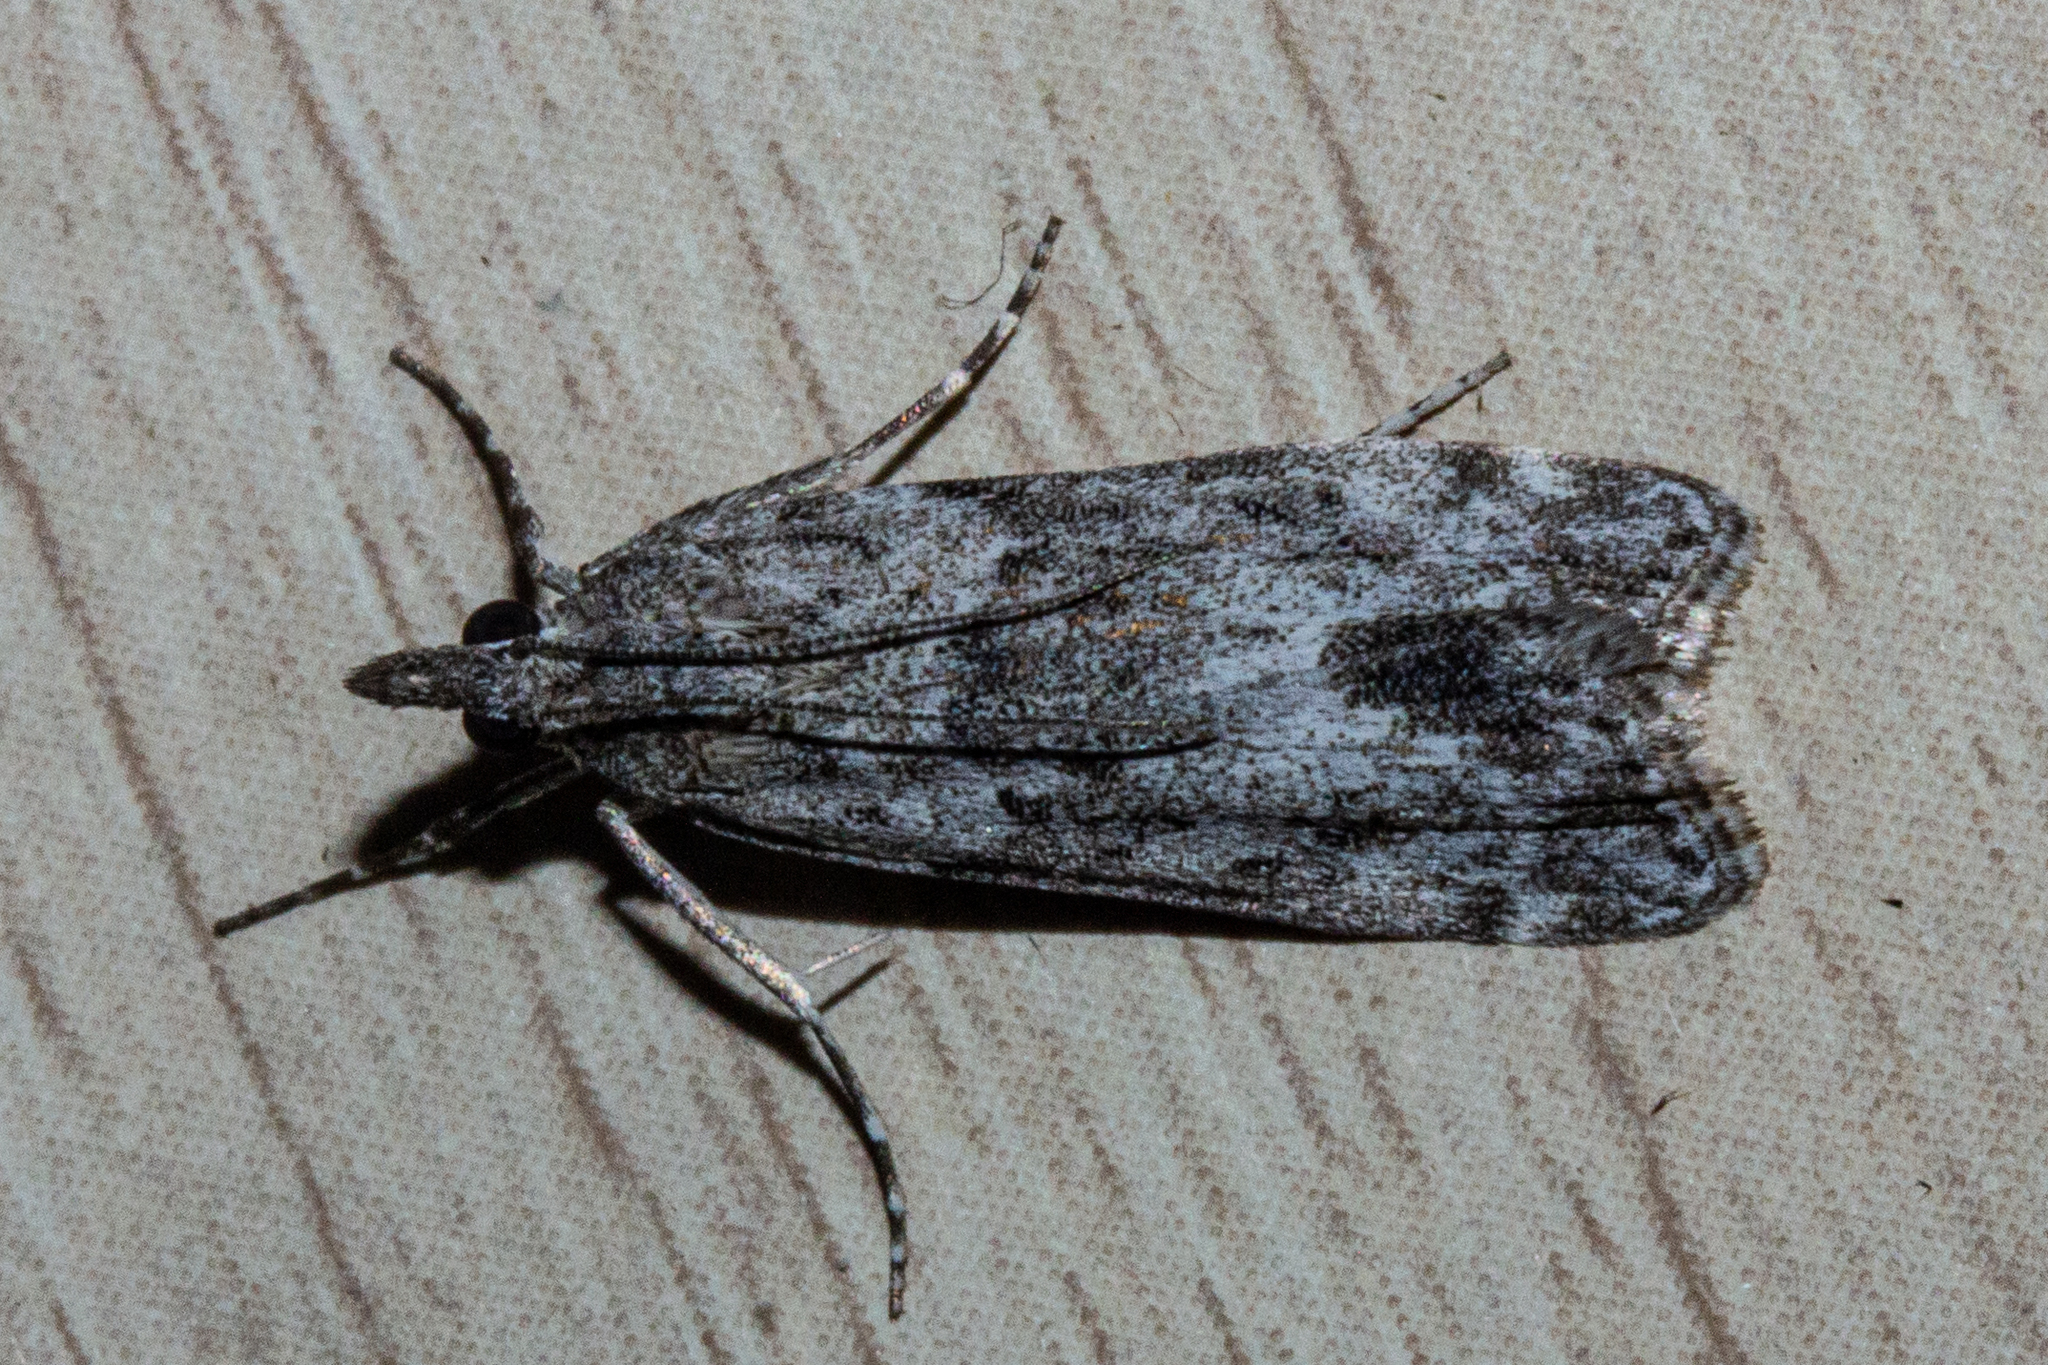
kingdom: Animalia
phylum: Arthropoda
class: Insecta
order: Lepidoptera
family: Crambidae
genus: Eudonia
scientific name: Eudonia rakaiensis
